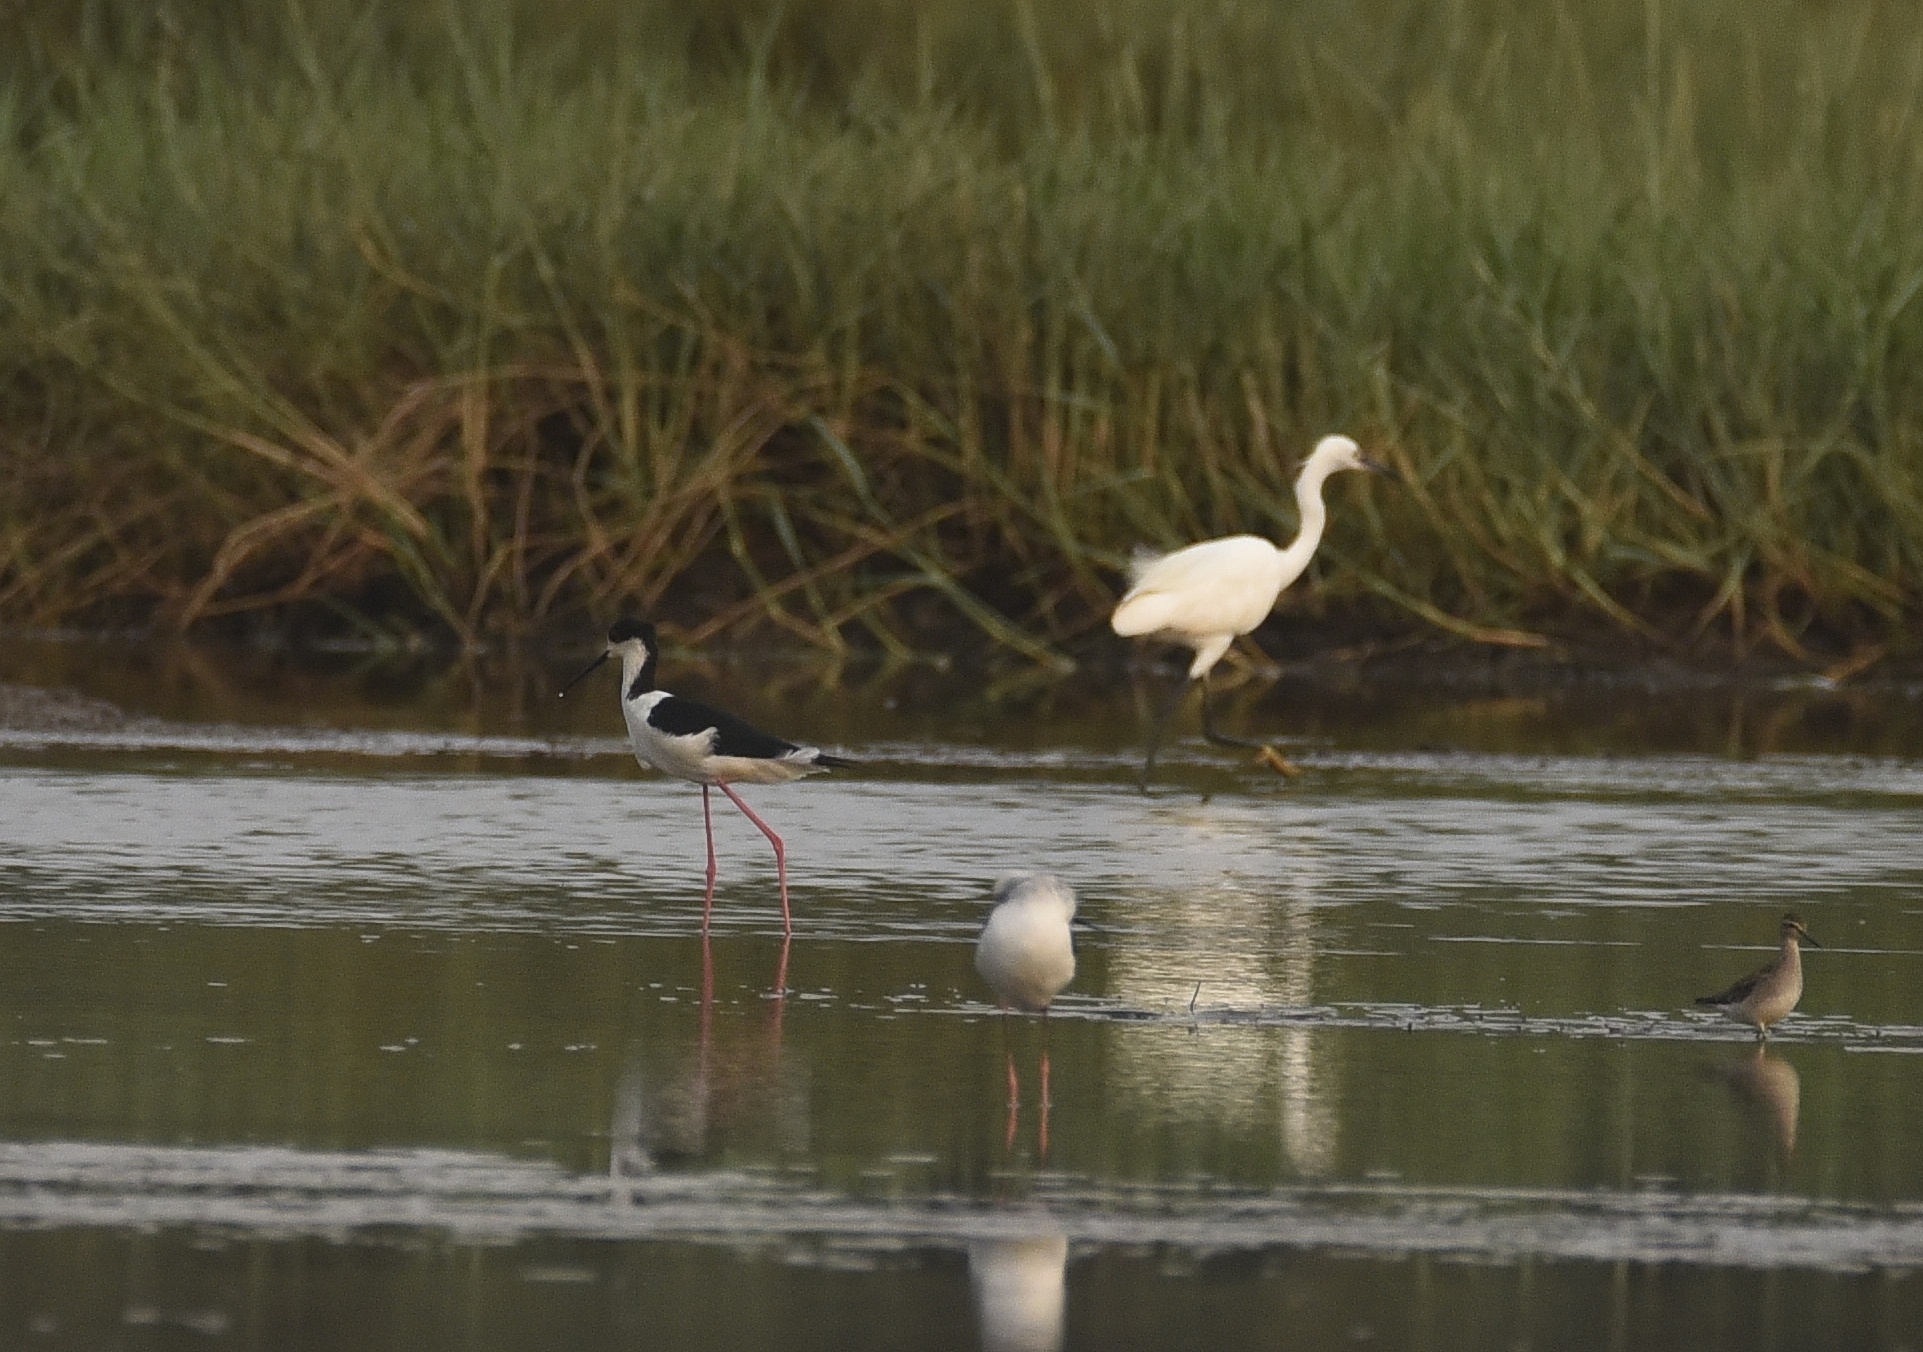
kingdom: Animalia
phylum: Chordata
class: Aves
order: Charadriiformes
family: Recurvirostridae
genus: Himantopus
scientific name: Himantopus himantopus
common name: Black-winged stilt
